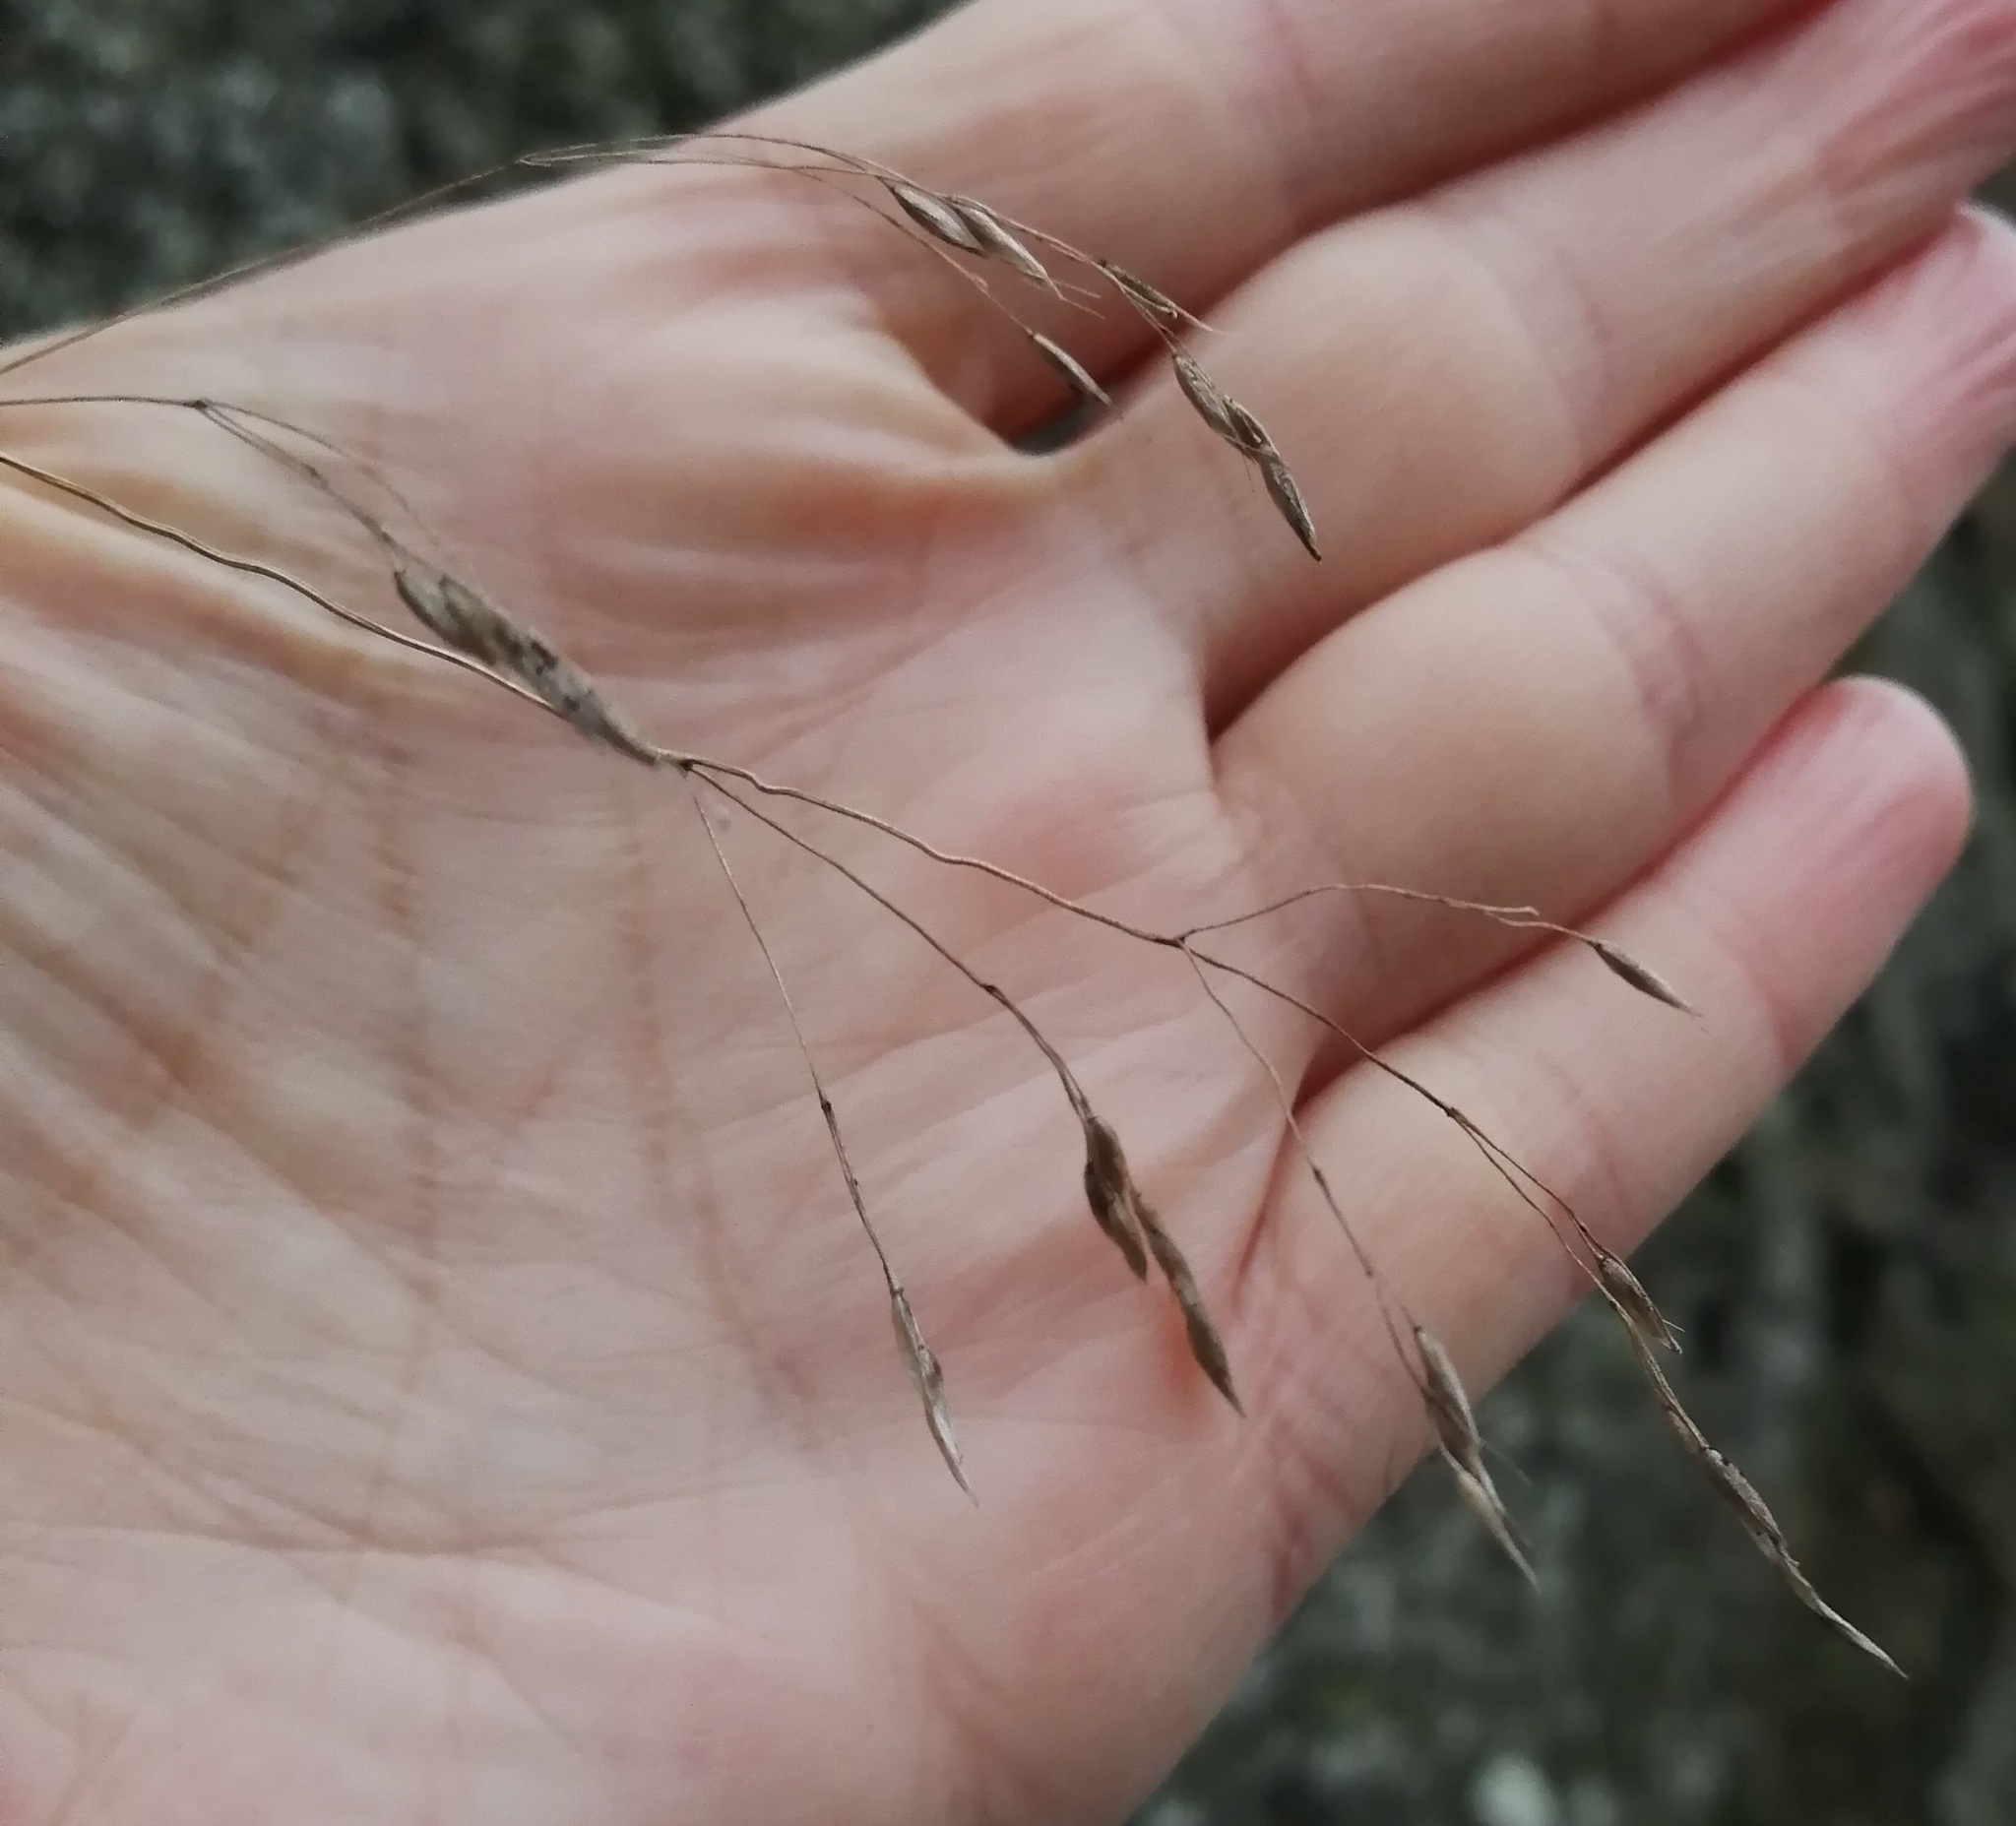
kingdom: Plantae
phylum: Tracheophyta
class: Liliopsida
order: Poales
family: Poaceae
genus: Avenella
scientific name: Avenella flexuosa
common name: Wavy hairgrass
